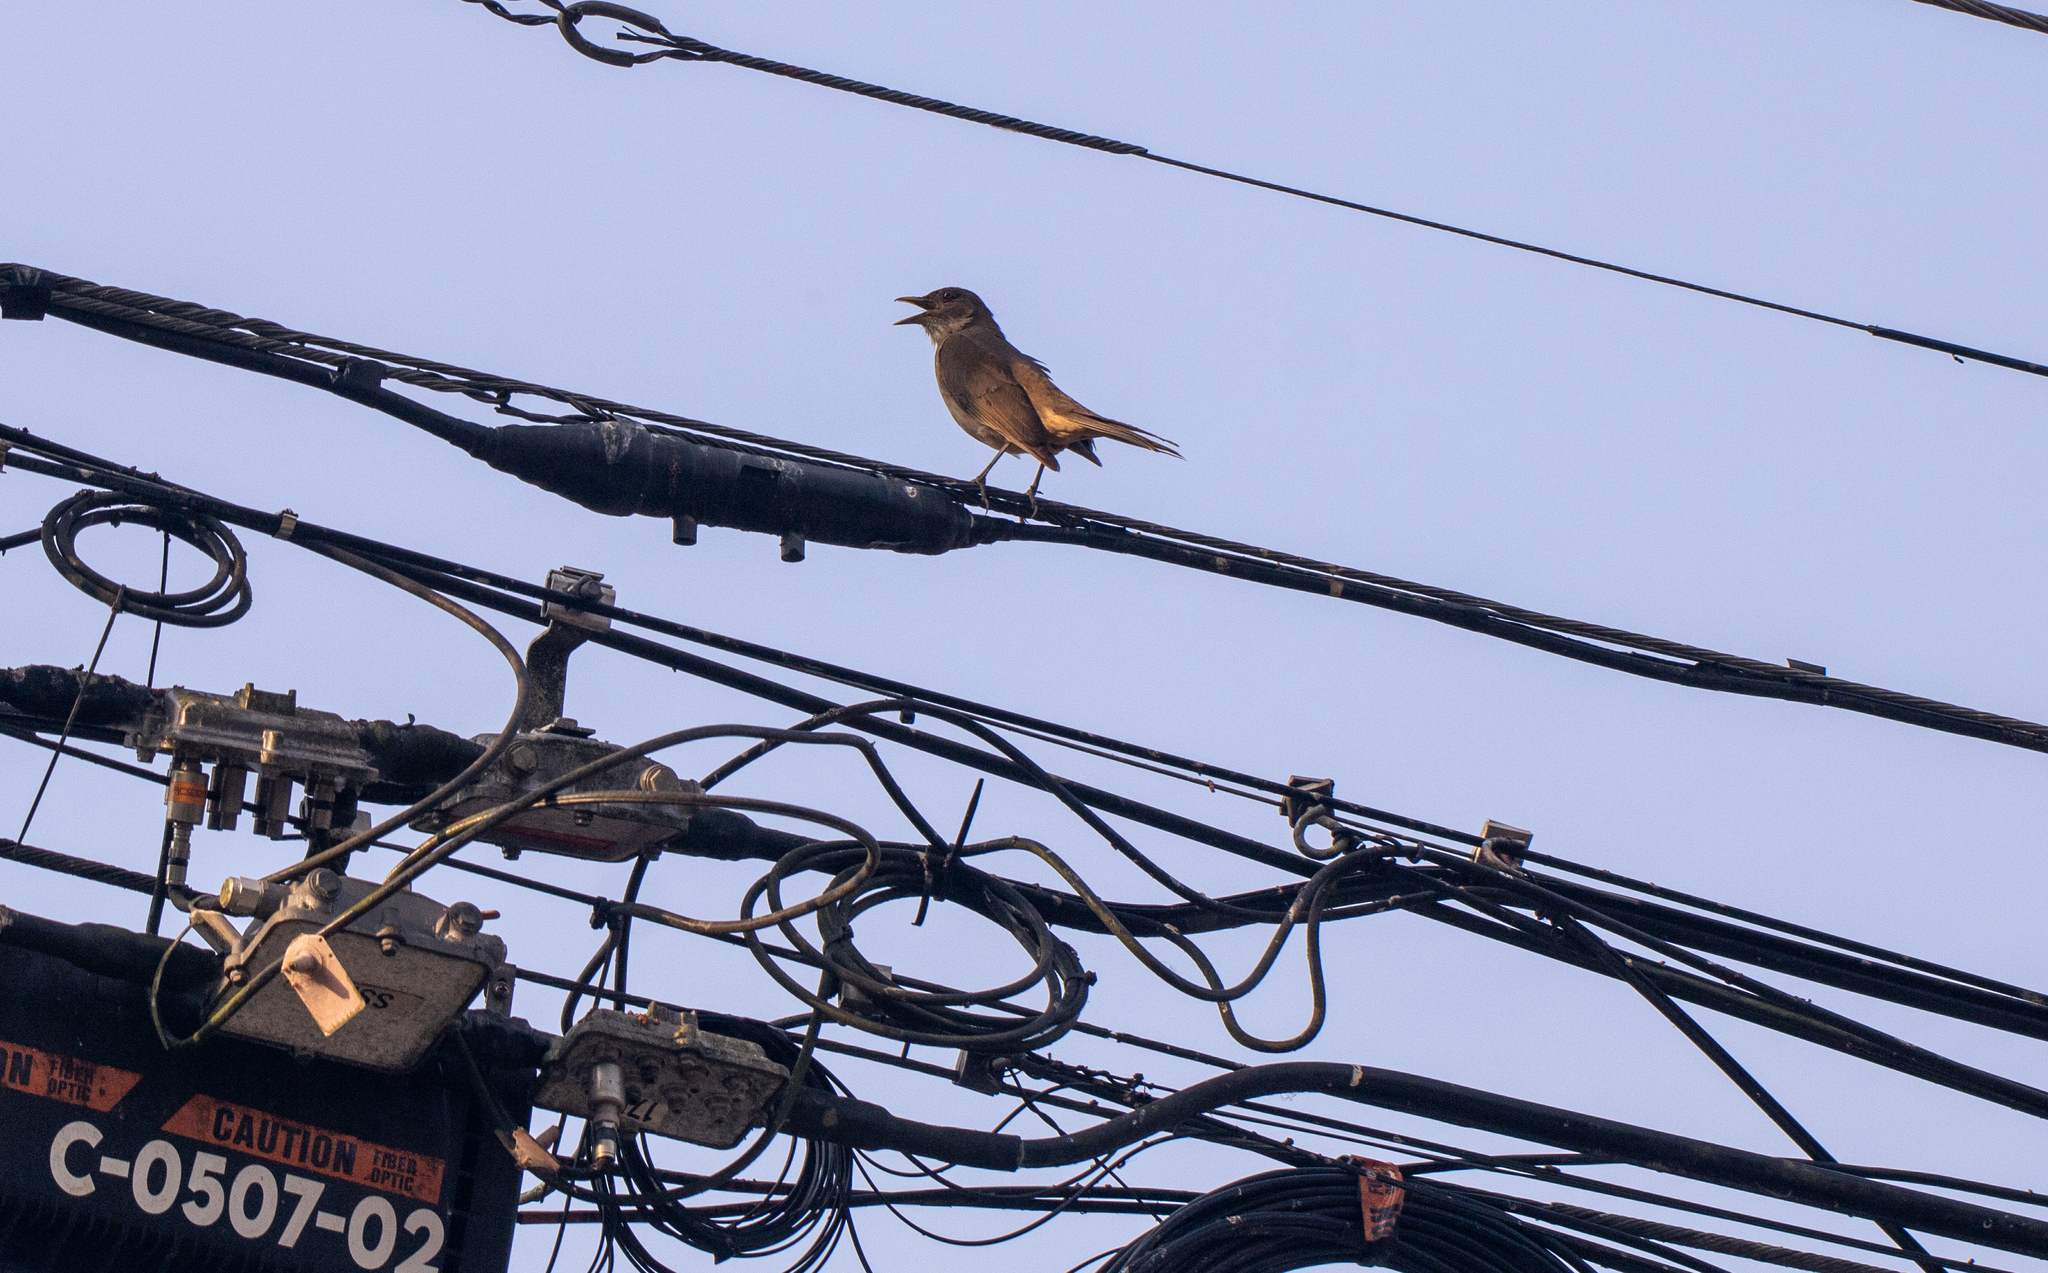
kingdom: Animalia
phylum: Chordata
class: Aves
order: Passeriformes
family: Turdidae
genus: Turdus
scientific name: Turdus grayi
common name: Clay-colored thrush
